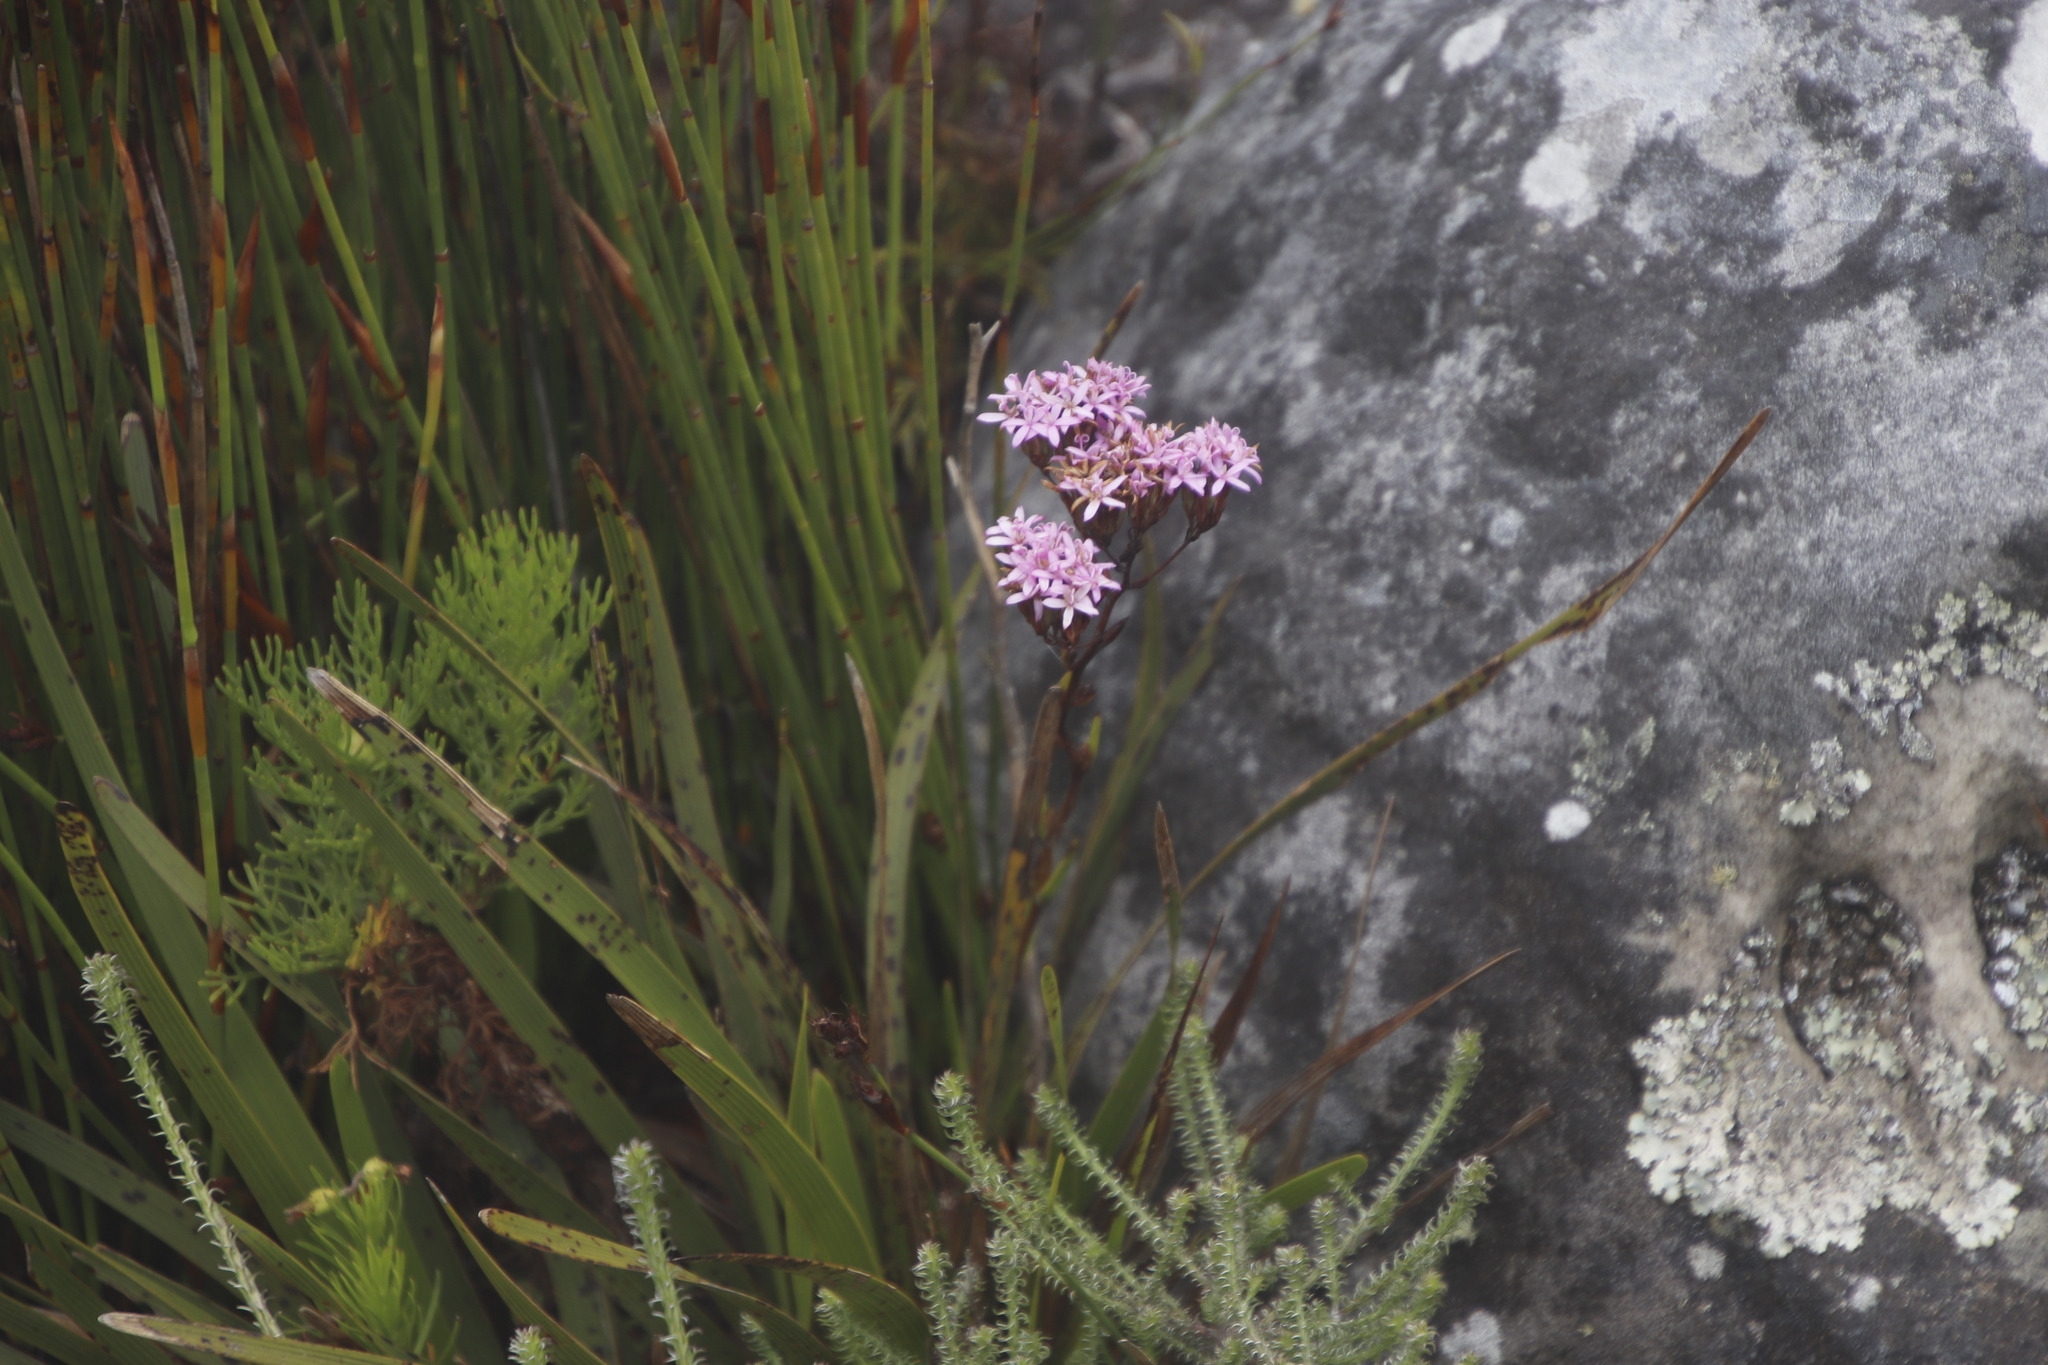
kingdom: Plantae
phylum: Tracheophyta
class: Magnoliopsida
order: Asterales
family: Asteraceae
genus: Corymbium
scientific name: Corymbium glabrum
